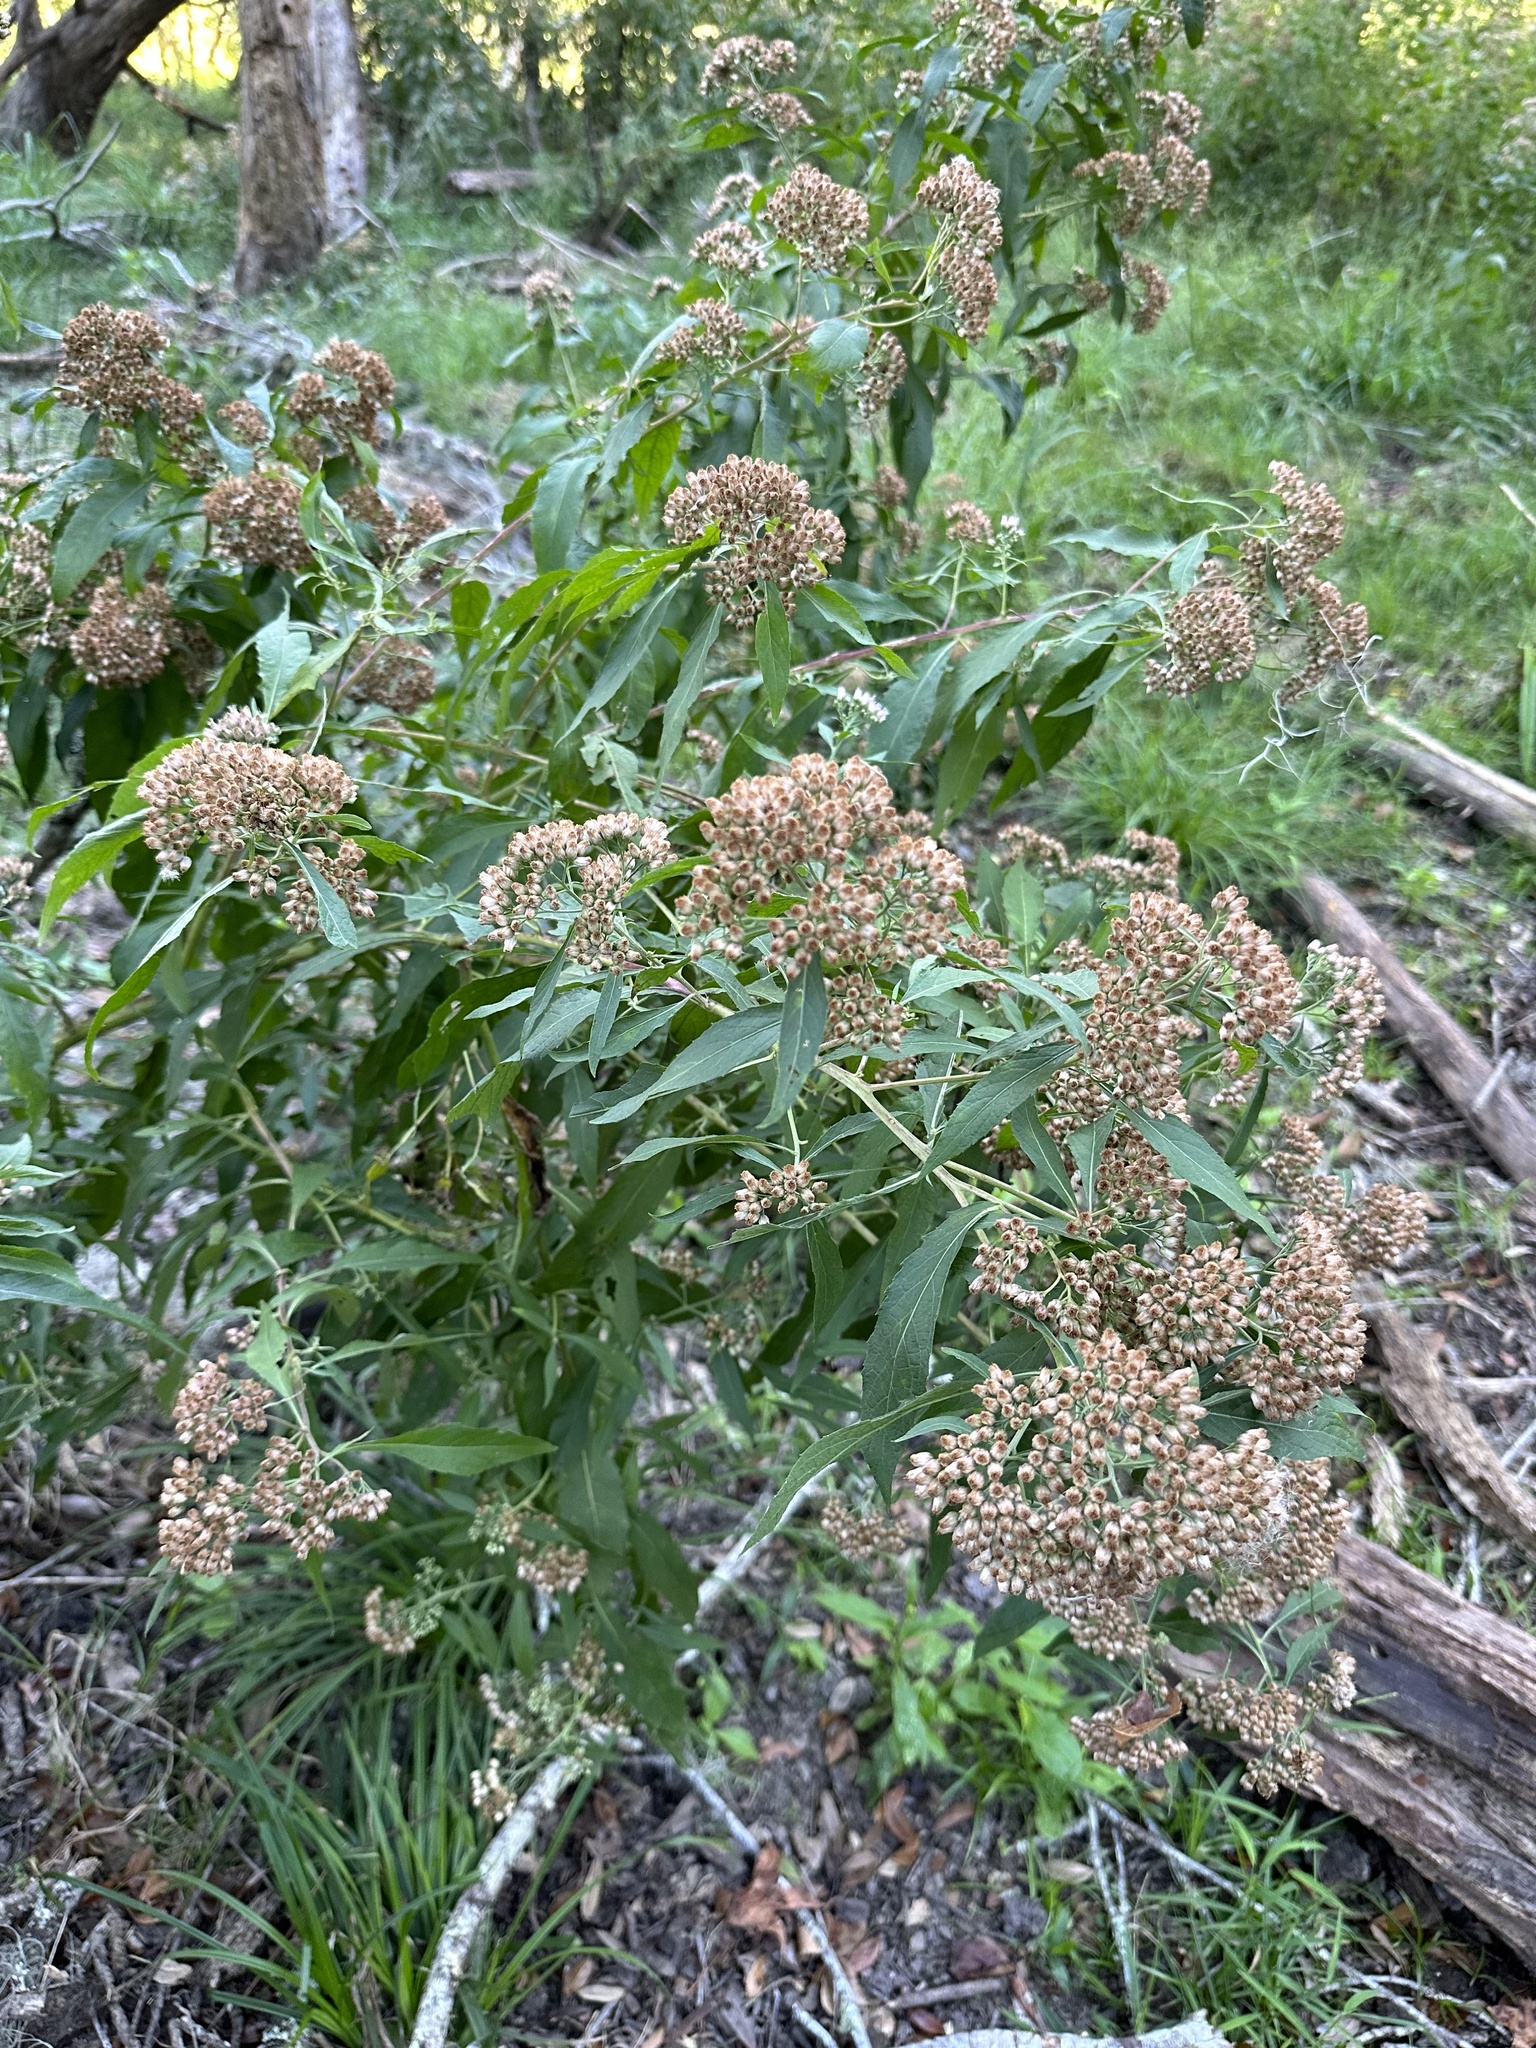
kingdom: Plantae
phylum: Tracheophyta
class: Magnoliopsida
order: Asterales
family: Asteraceae
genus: Pluchea
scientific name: Pluchea camphorata
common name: Camphor pluchea
